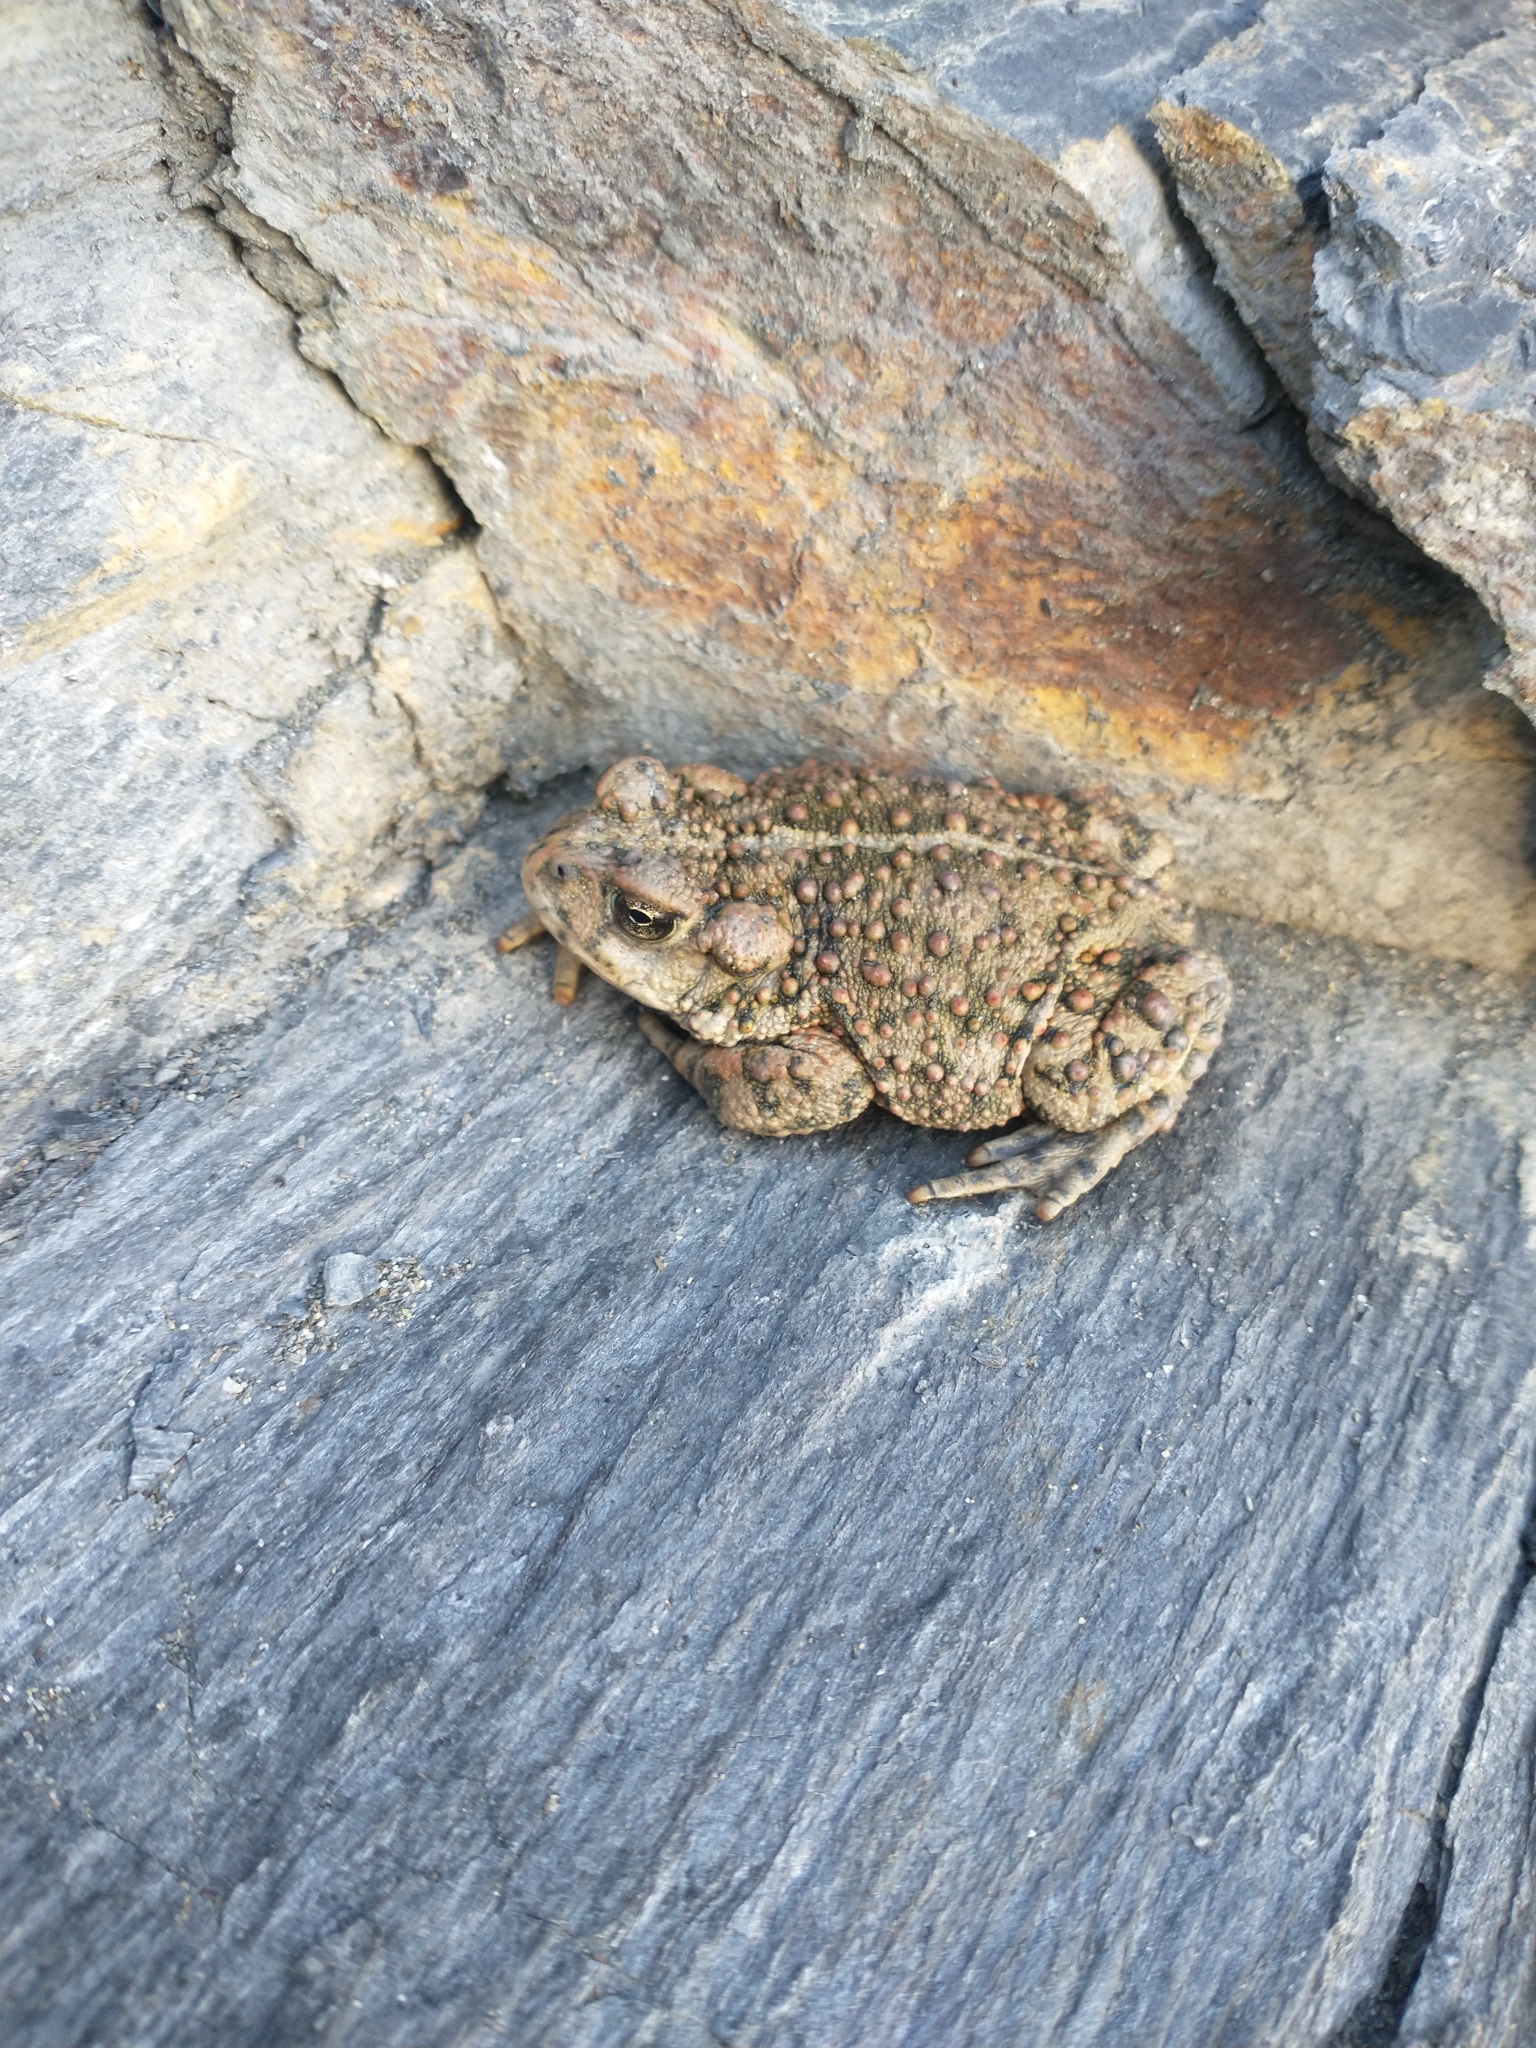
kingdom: Animalia
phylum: Chordata
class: Amphibia
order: Anura
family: Bufonidae
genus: Anaxyrus
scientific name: Anaxyrus boreas
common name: Western toad
